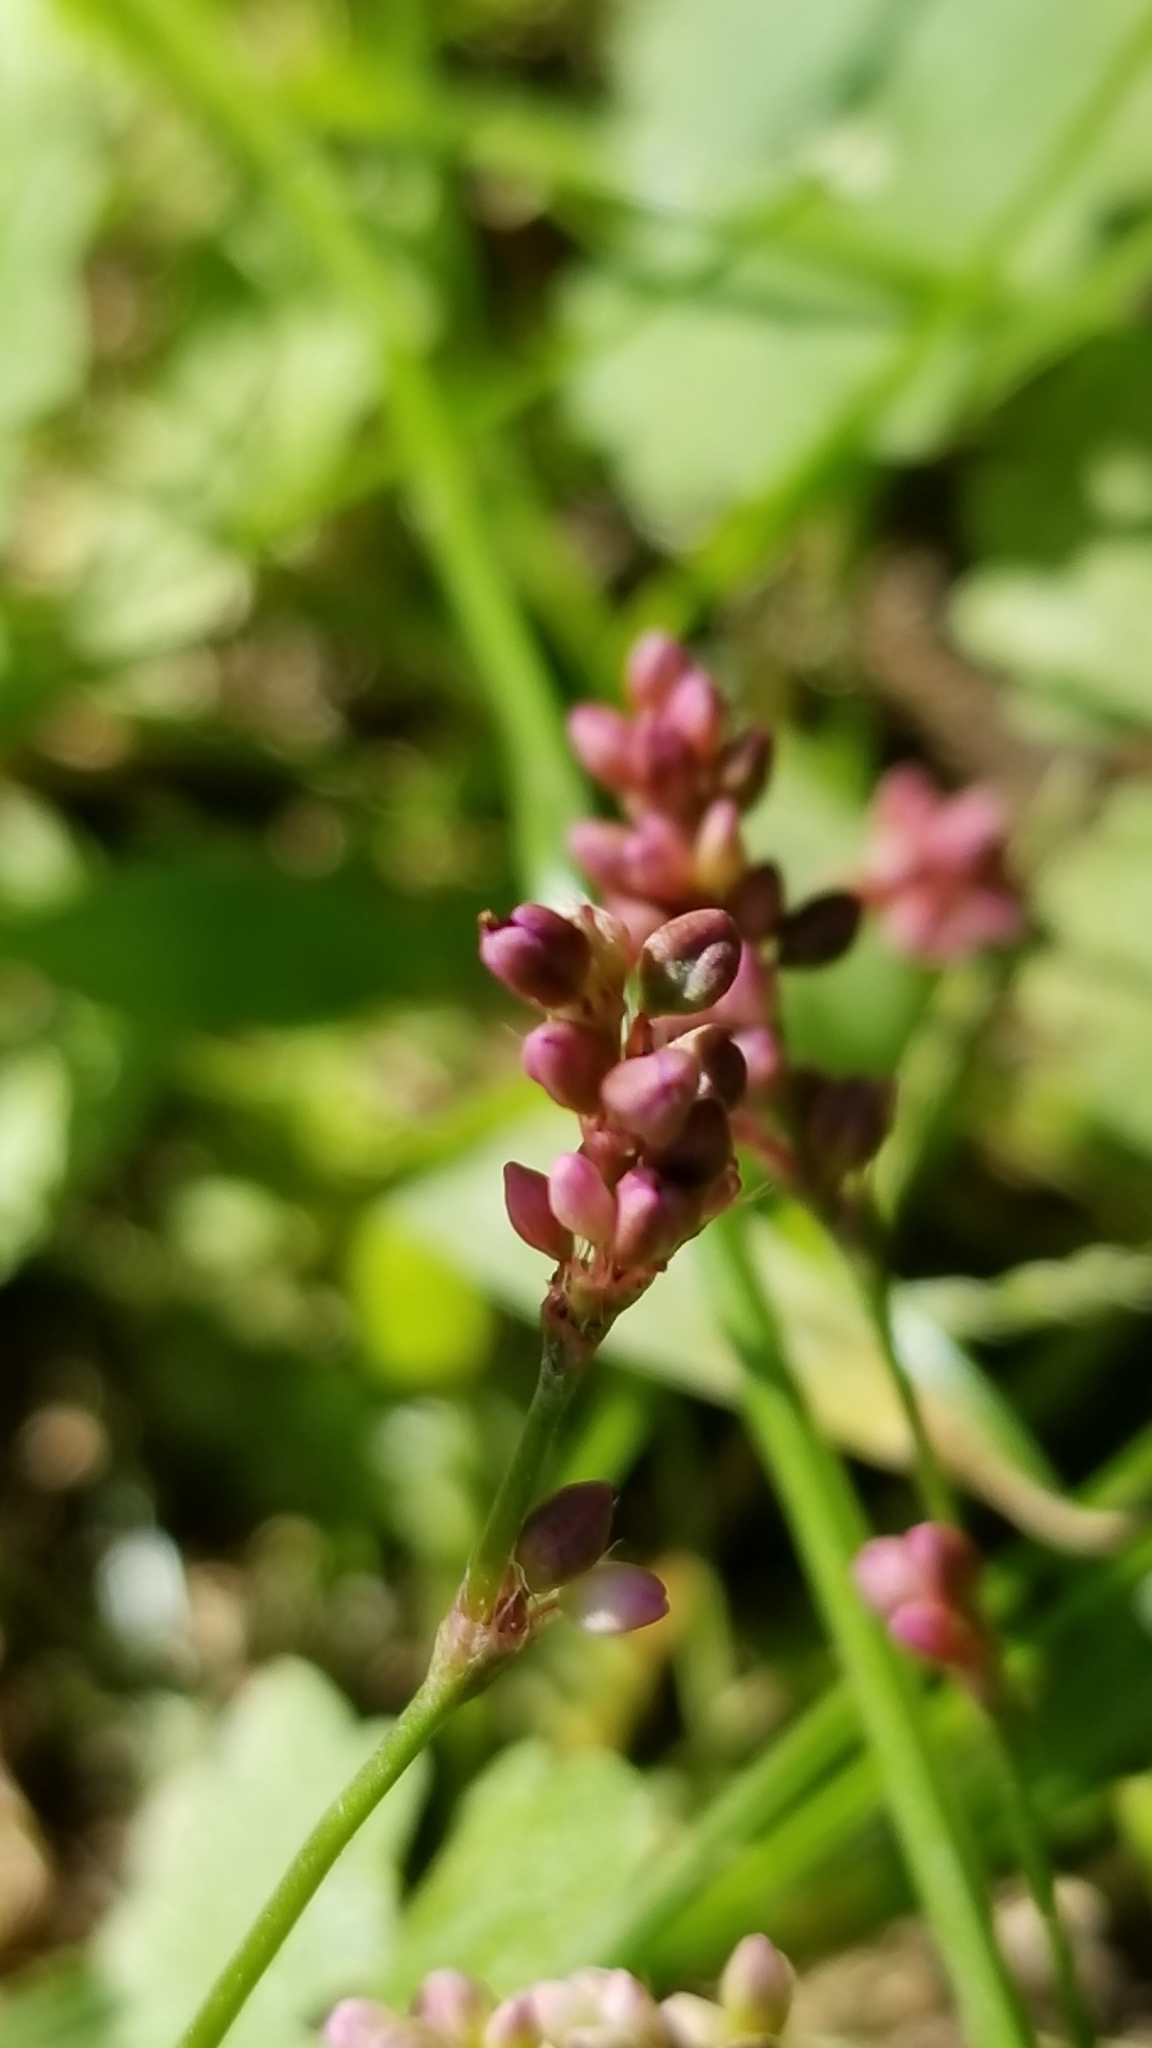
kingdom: Plantae
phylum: Tracheophyta
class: Magnoliopsida
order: Caryophyllales
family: Polygonaceae
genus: Persicaria
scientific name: Persicaria longiseta
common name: Bristly lady's-thumb
